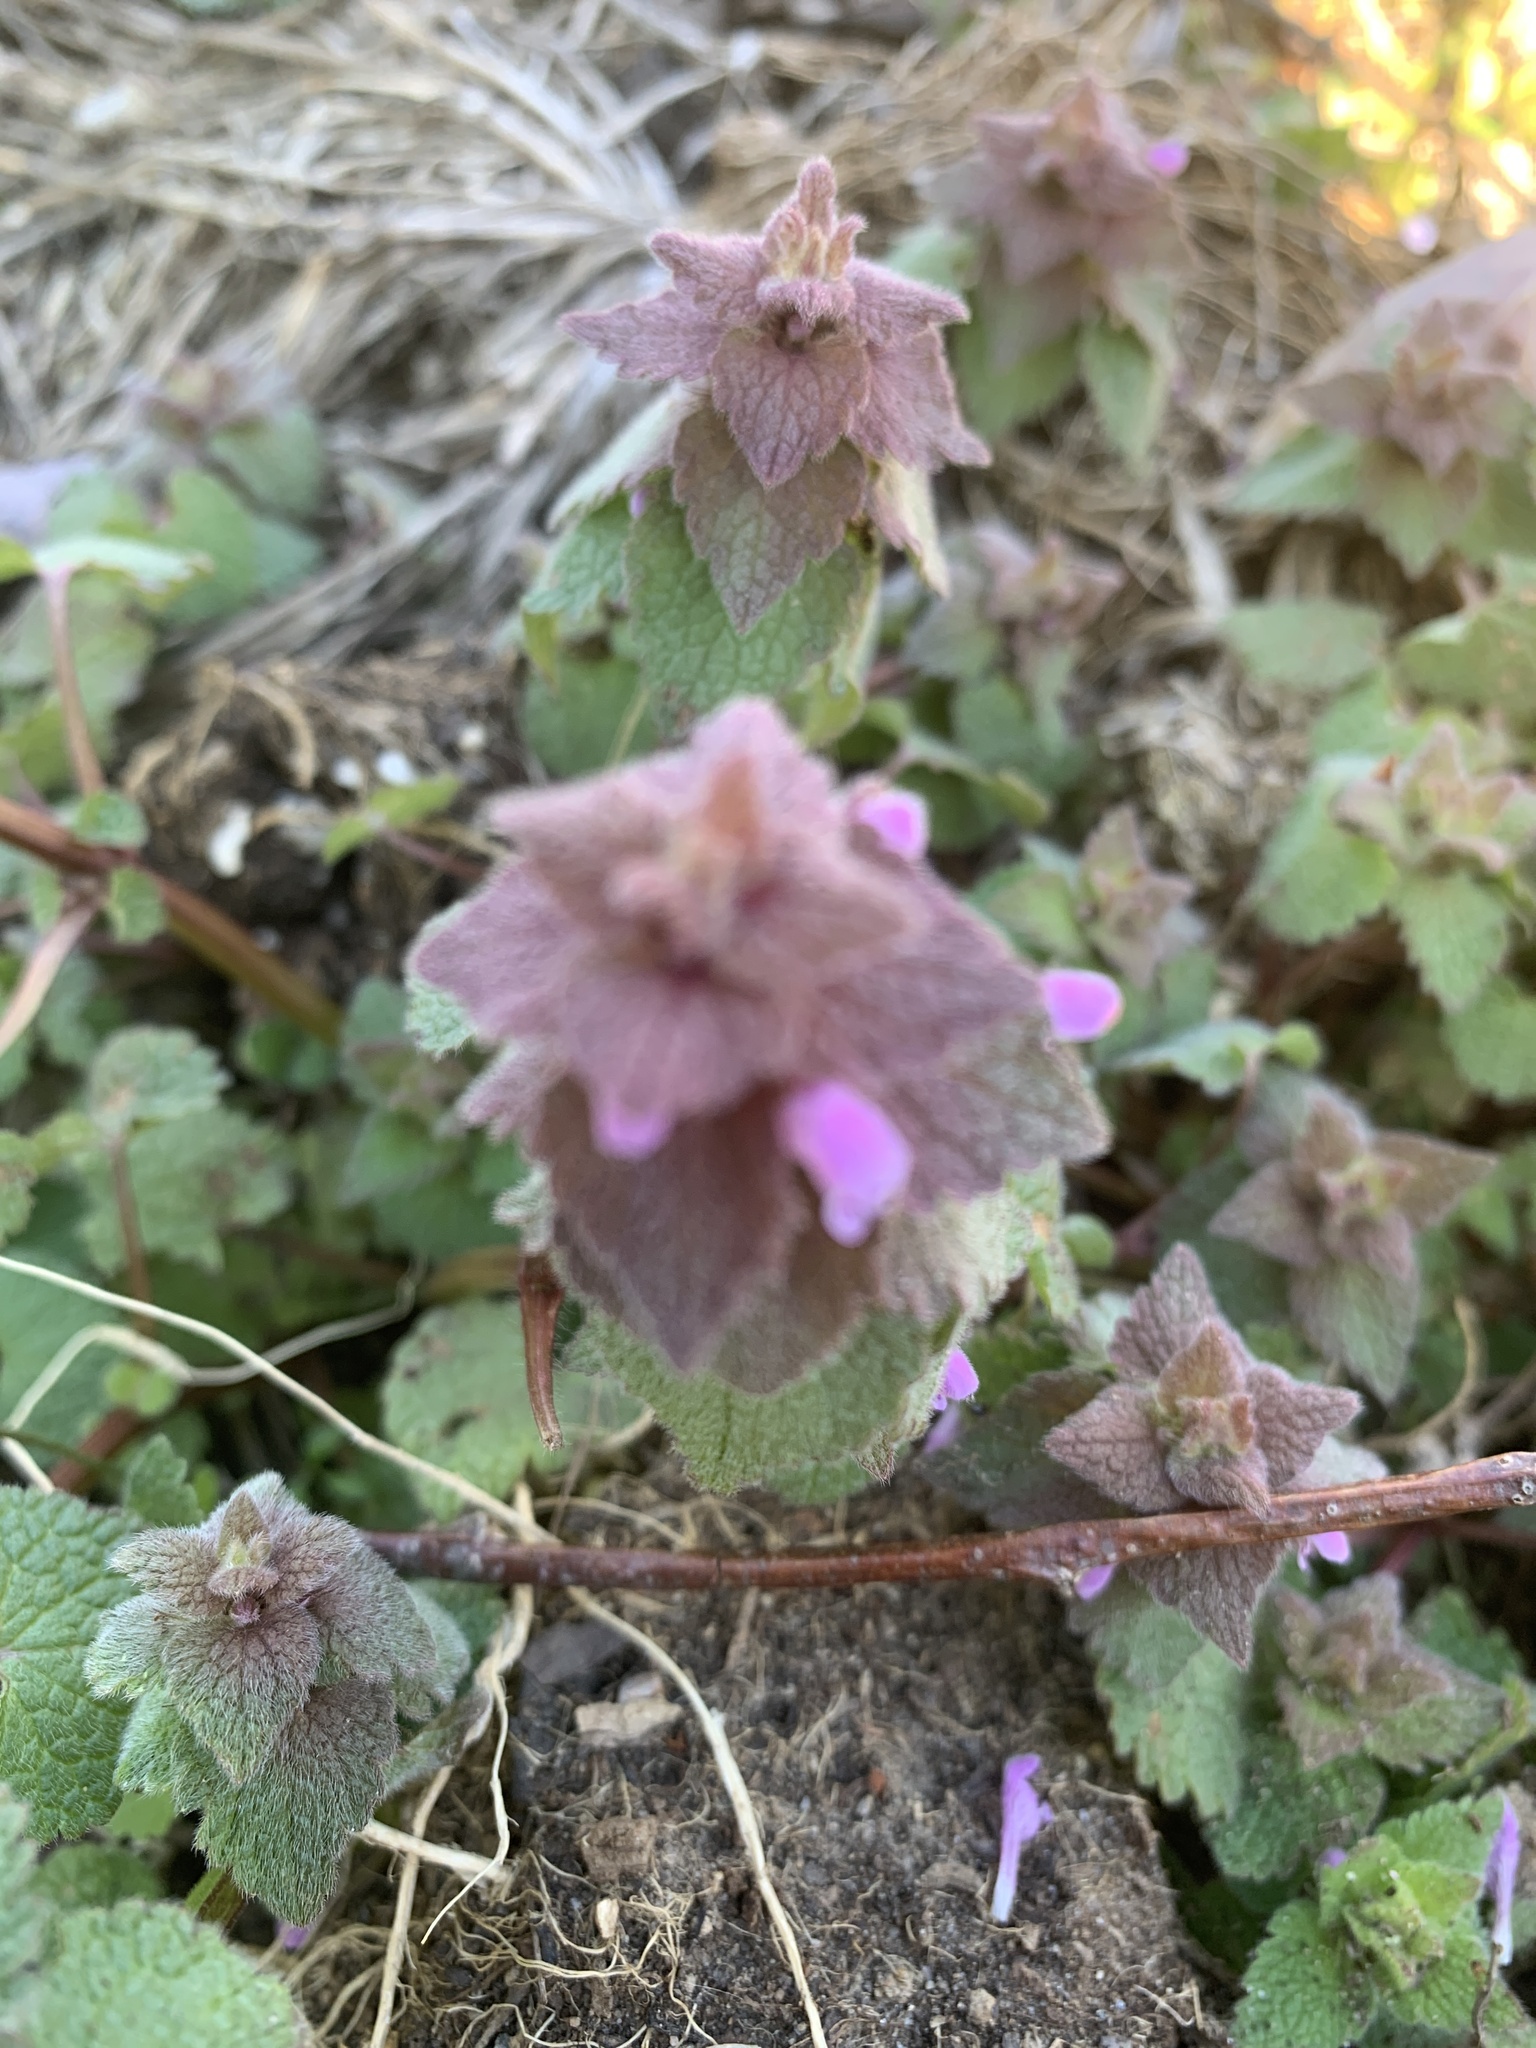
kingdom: Plantae
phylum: Tracheophyta
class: Magnoliopsida
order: Lamiales
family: Lamiaceae
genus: Lamium
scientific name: Lamium purpureum
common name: Red dead-nettle
